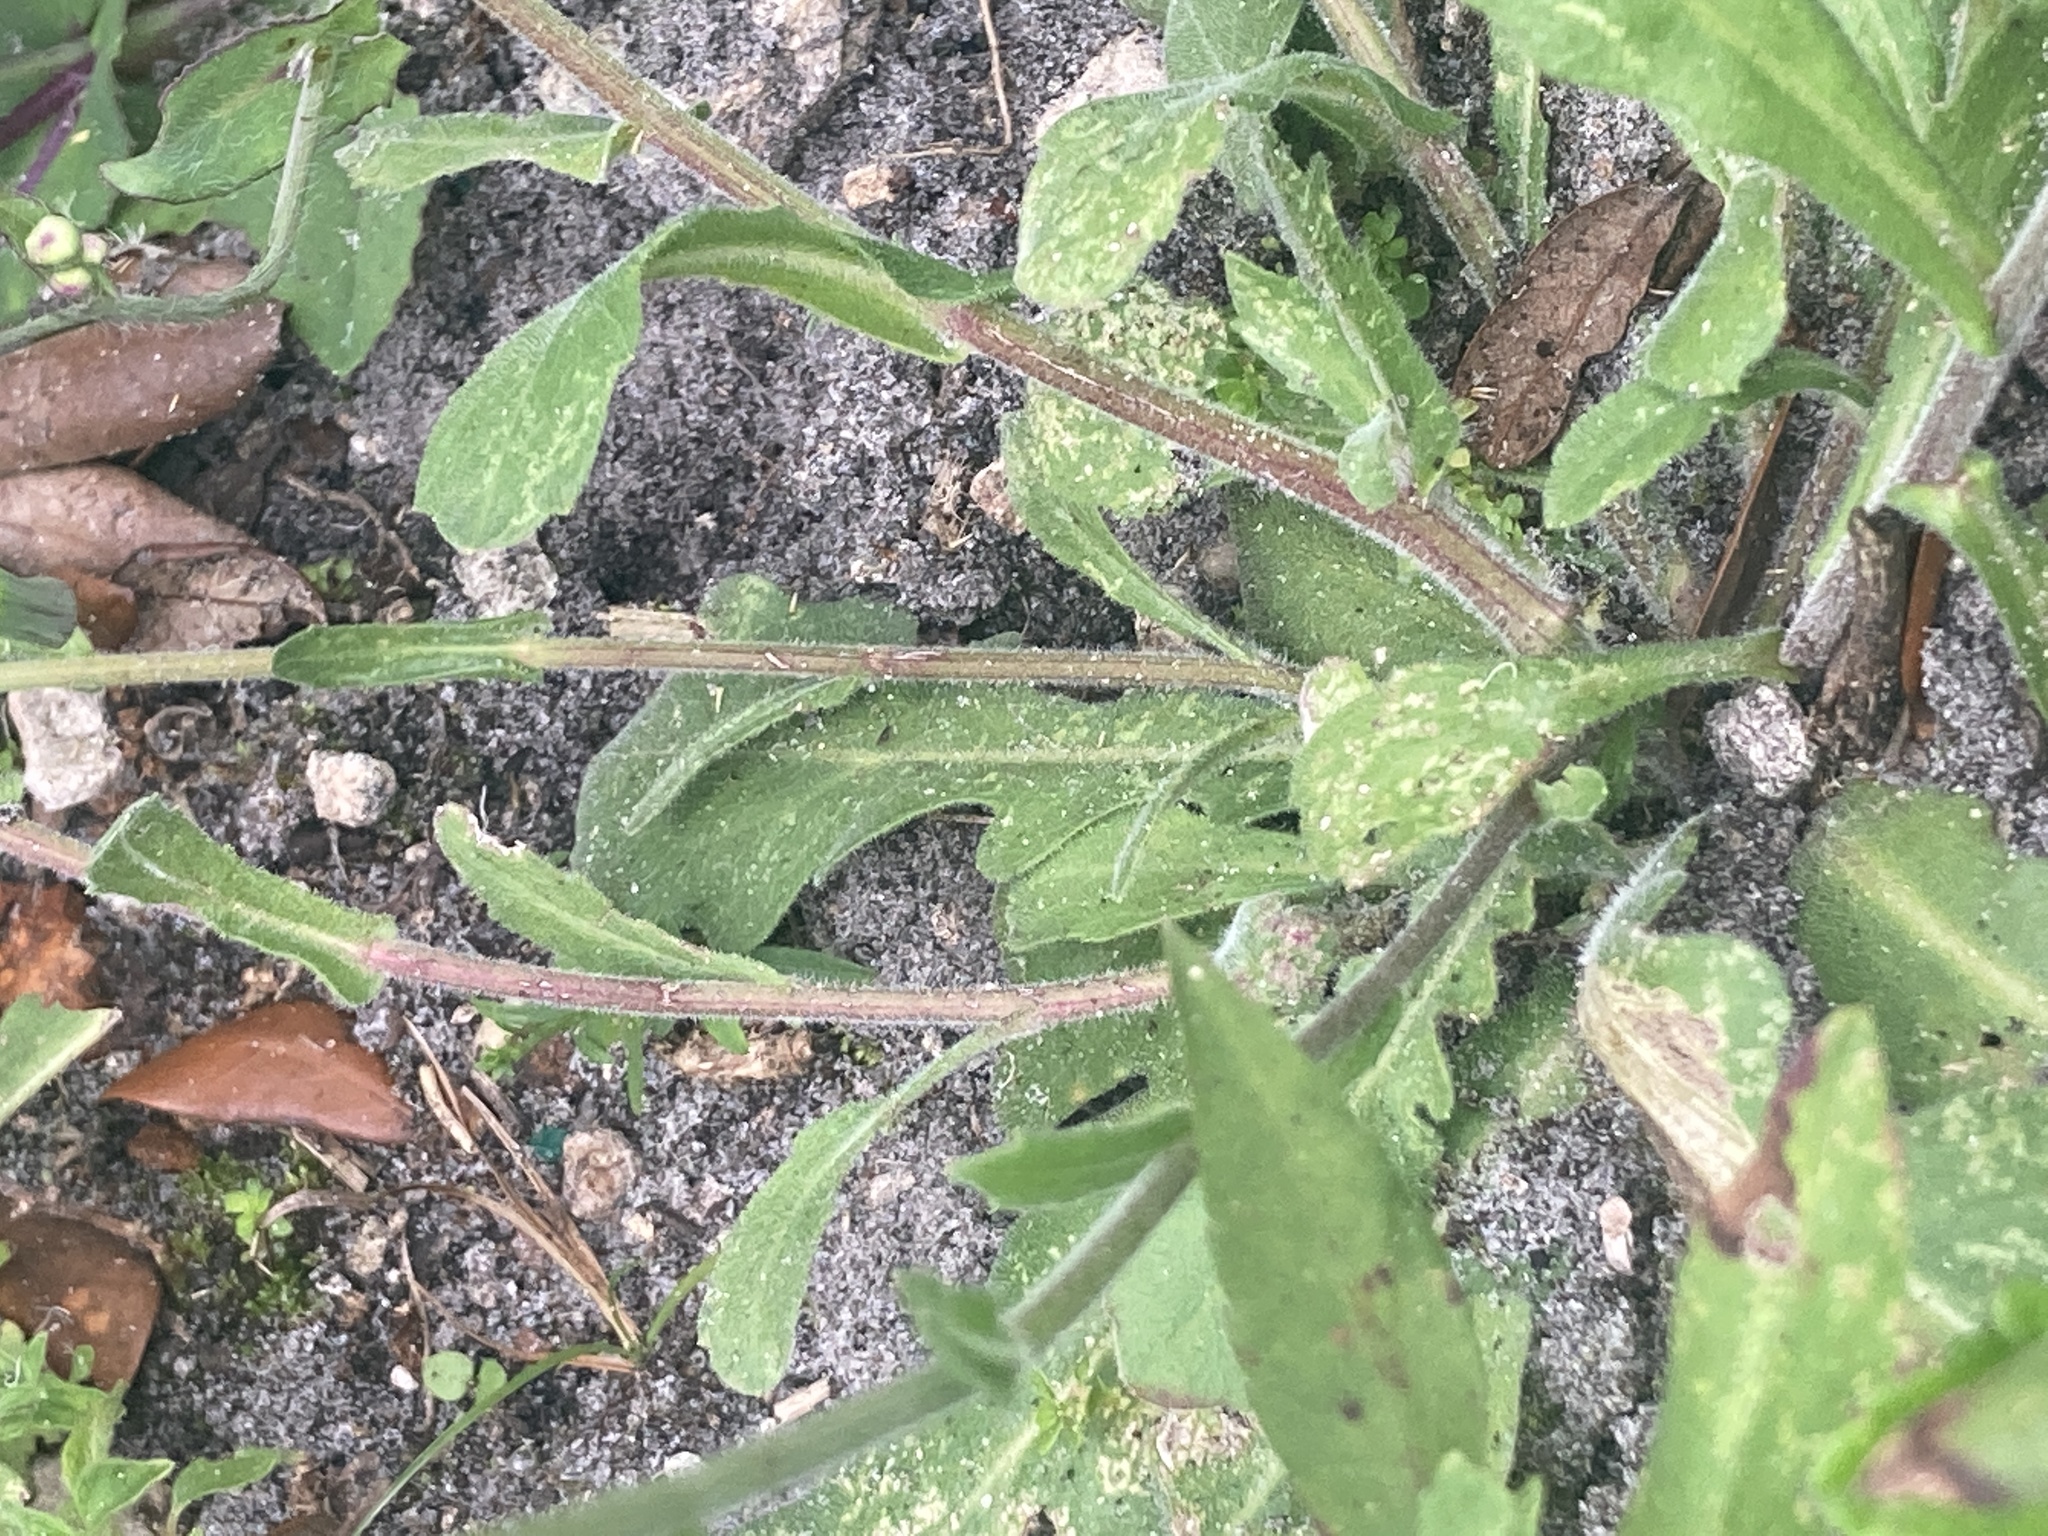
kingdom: Plantae
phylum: Tracheophyta
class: Magnoliopsida
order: Asterales
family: Asteraceae
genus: Erigeron
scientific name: Erigeron quercifolius
